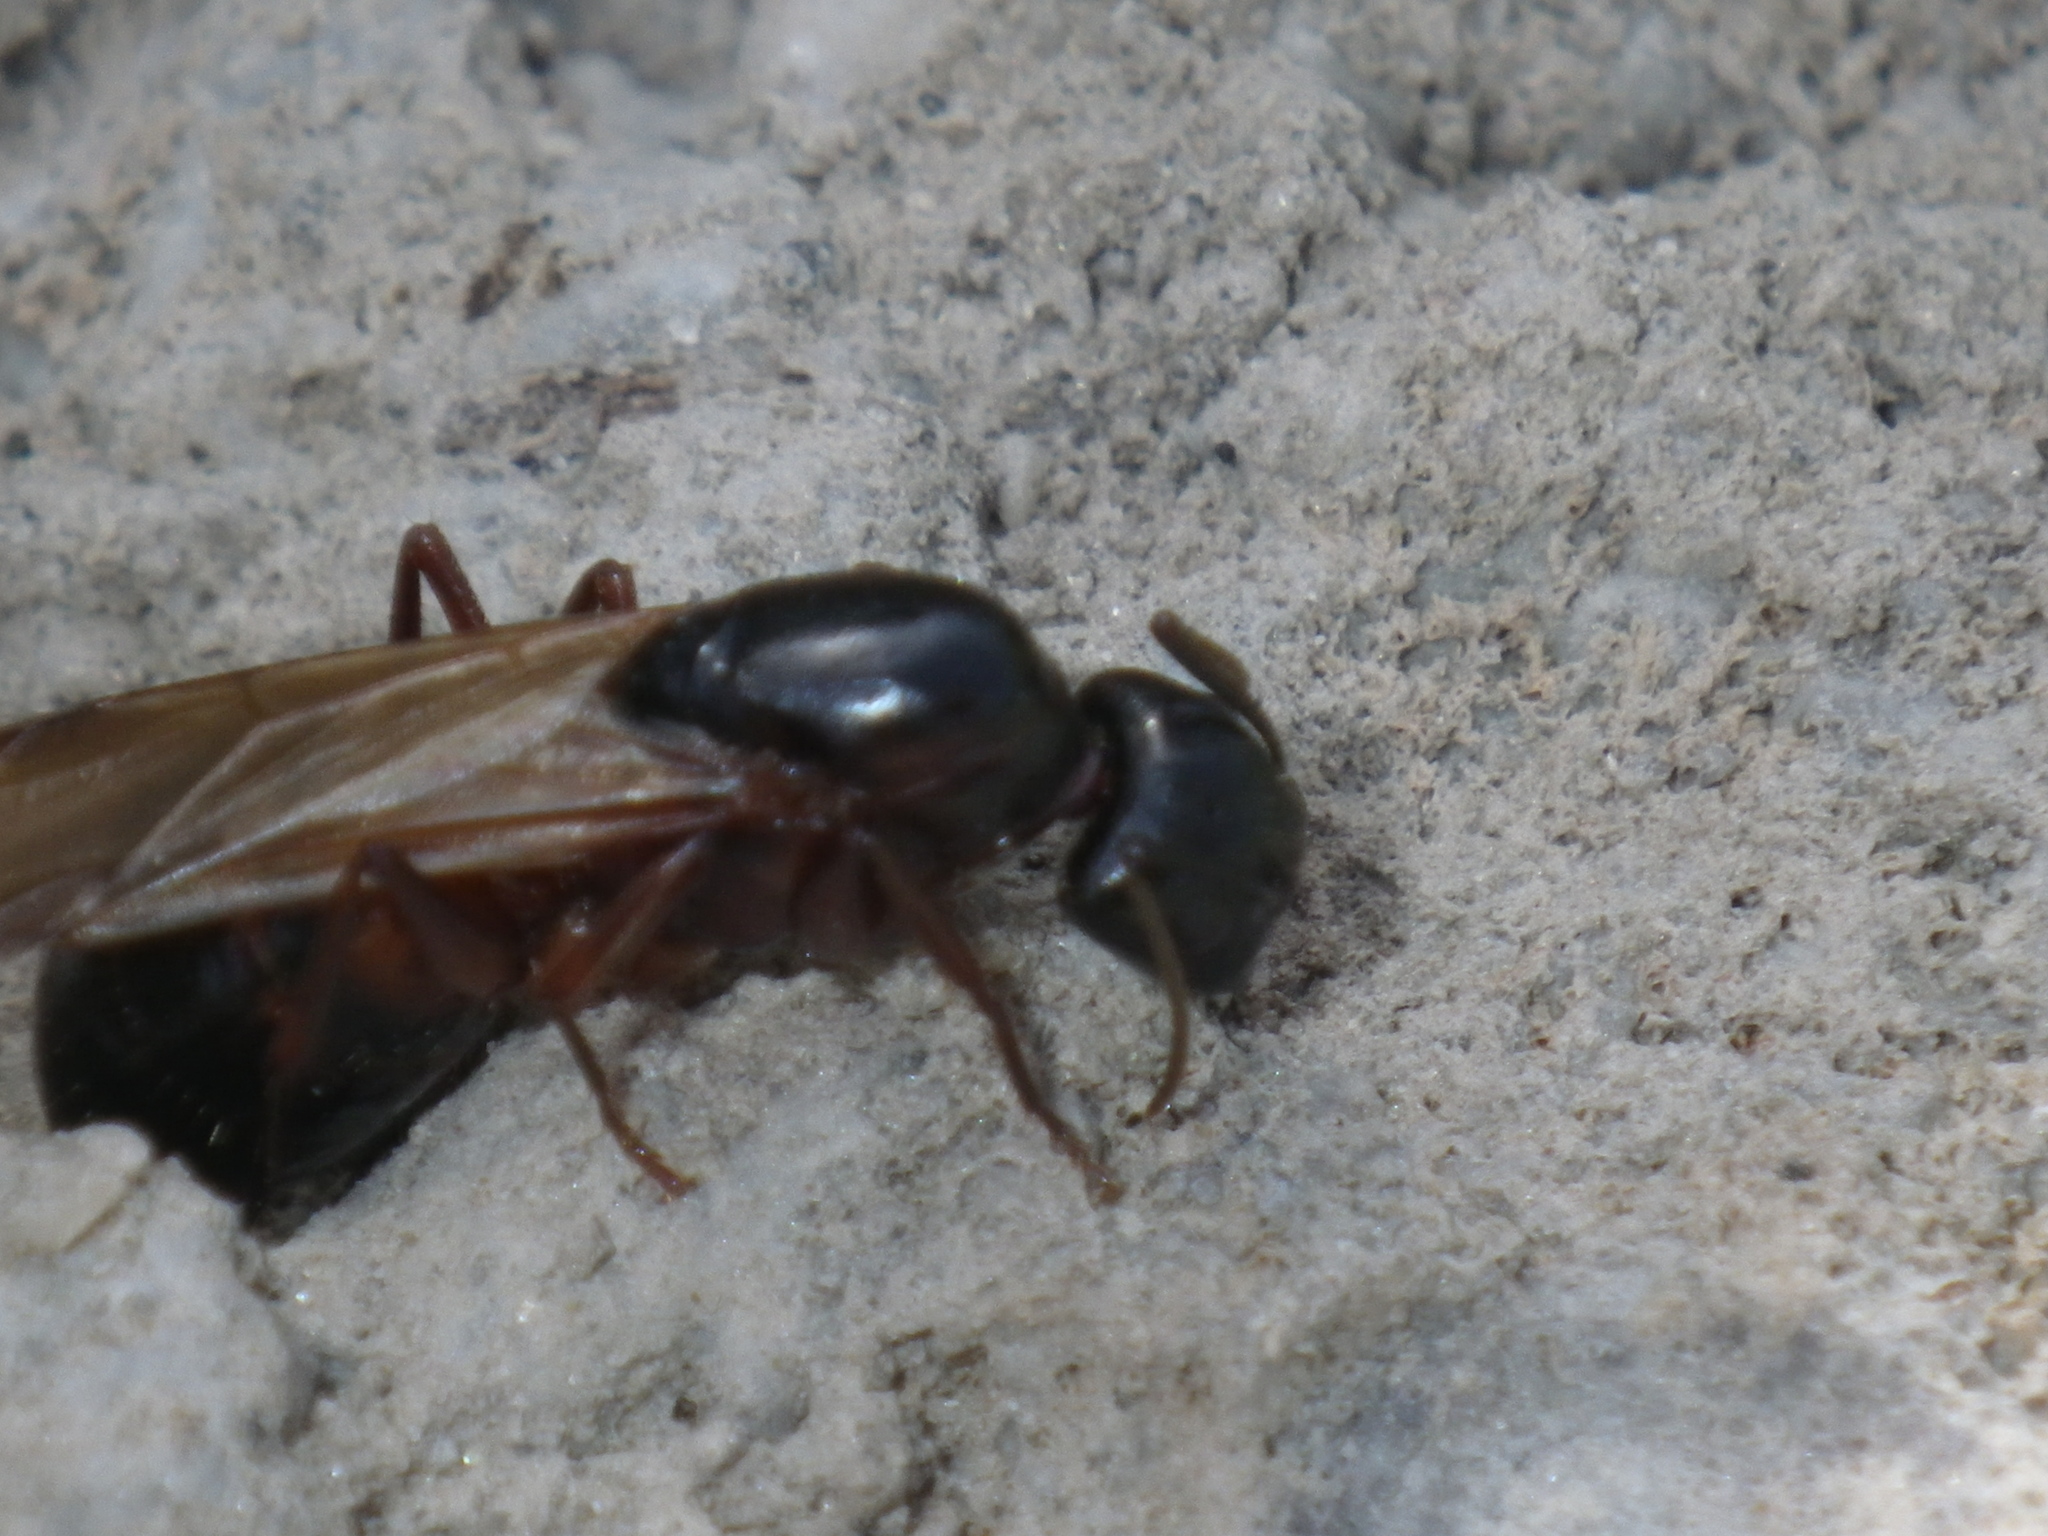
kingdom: Animalia
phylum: Arthropoda
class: Insecta
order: Hymenoptera
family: Formicidae
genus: Camponotus
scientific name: Camponotus vicinus
